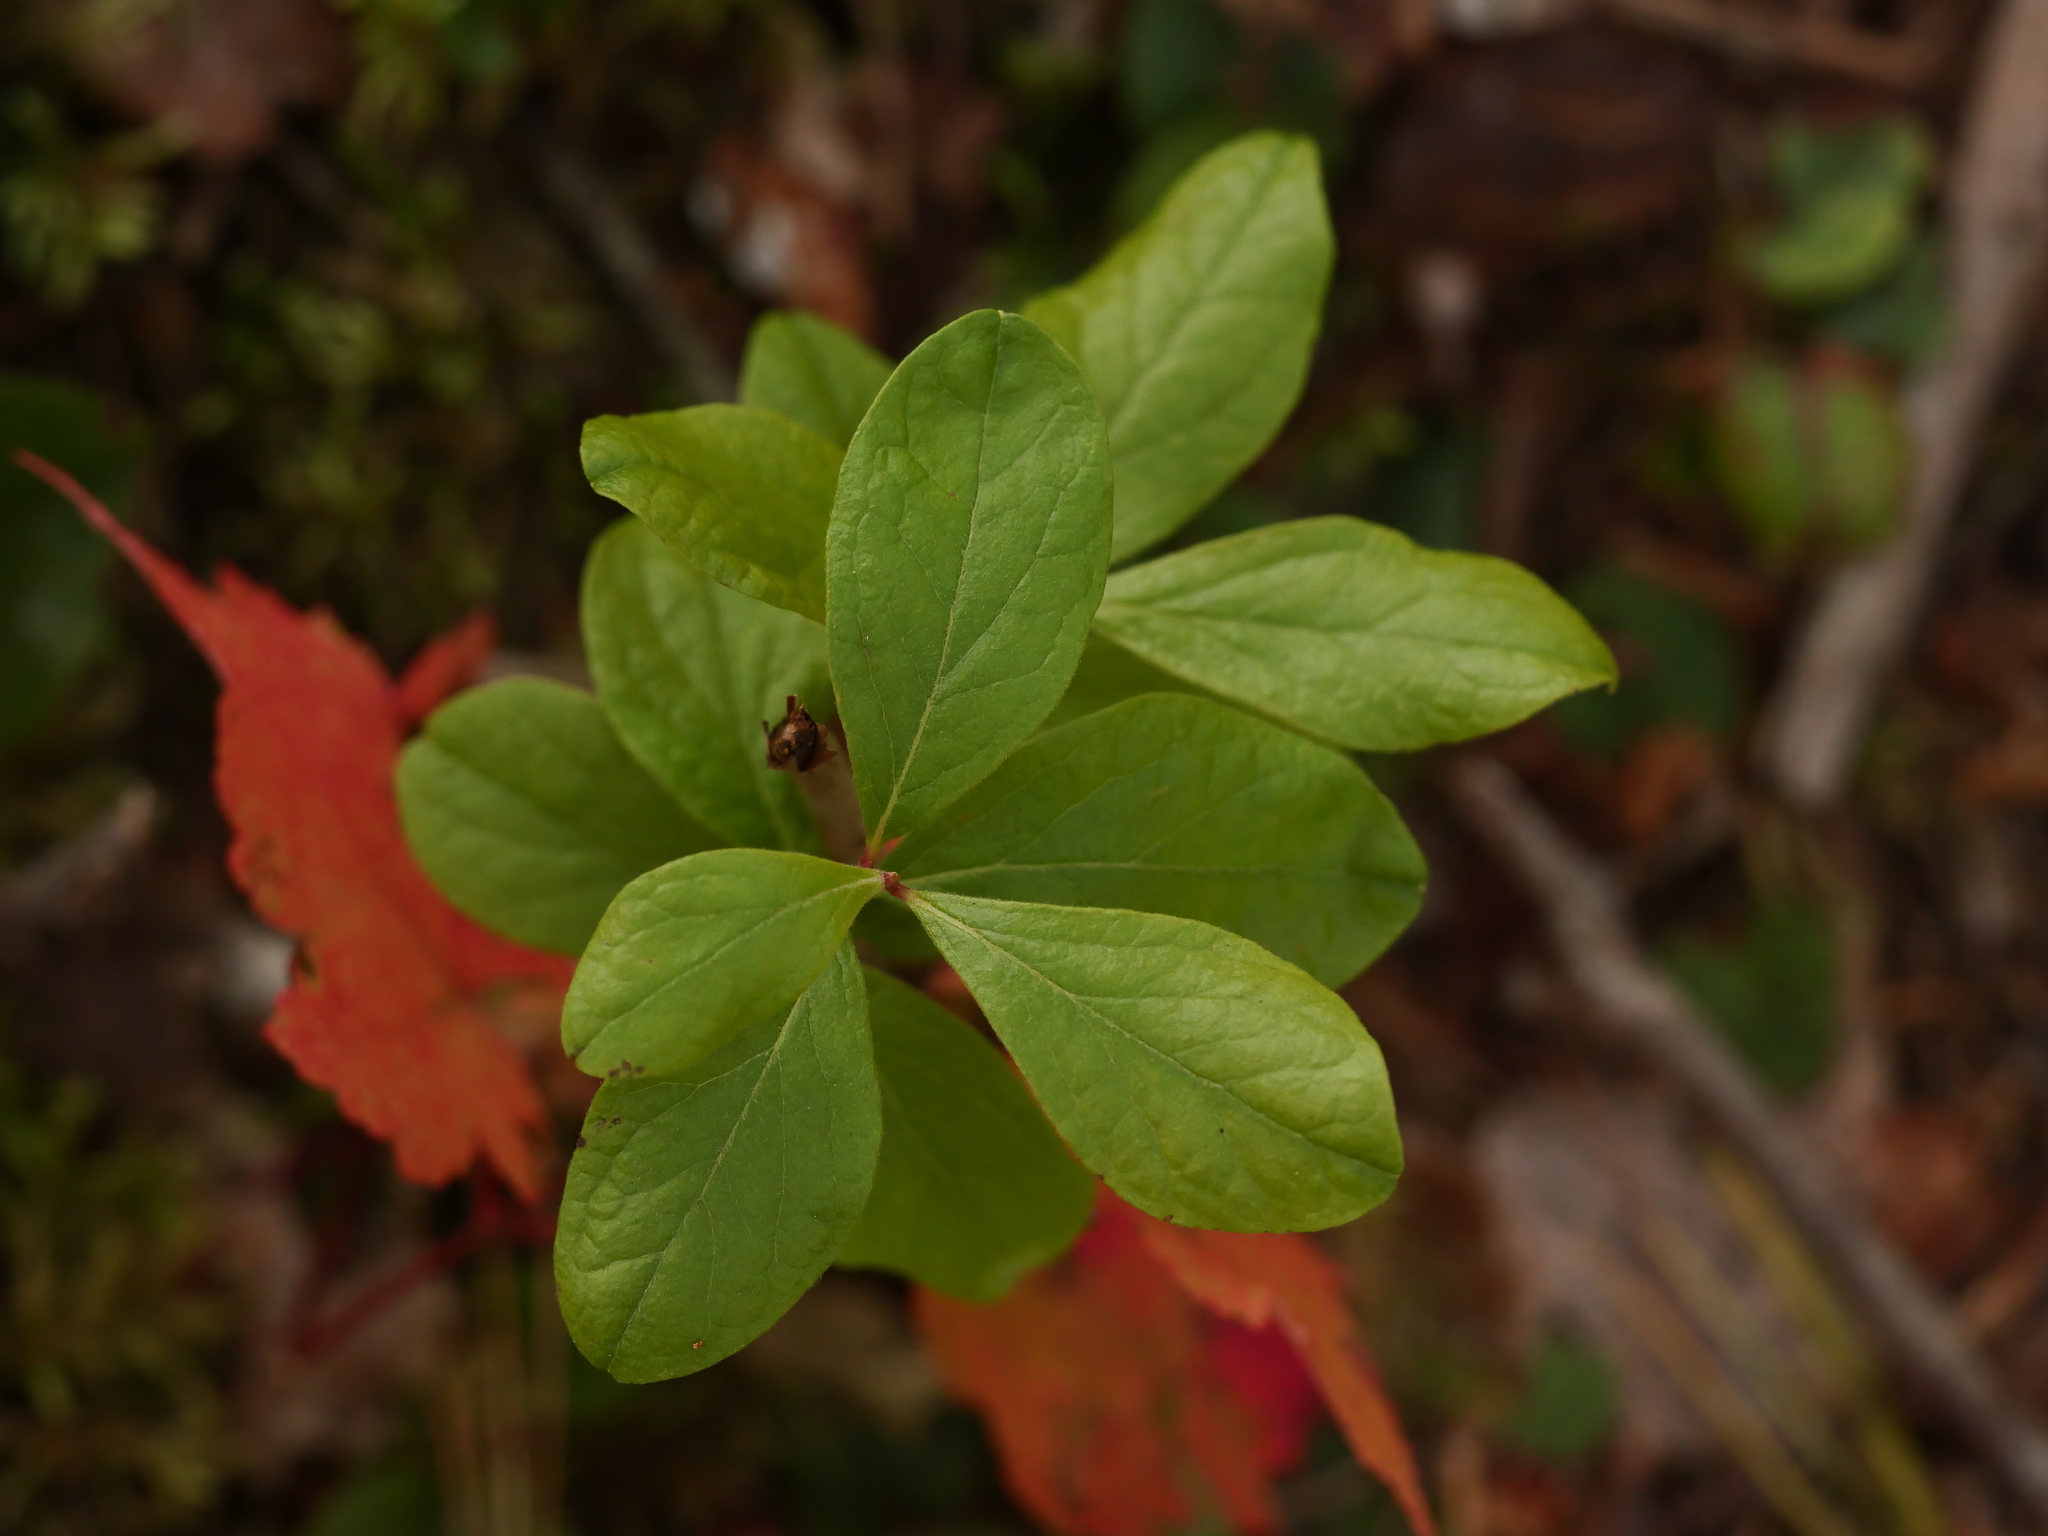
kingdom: Plantae
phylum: Tracheophyta
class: Magnoliopsida
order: Ericales
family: Ericaceae
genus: Gaylussacia
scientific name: Gaylussacia baccata
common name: Black huckleberry
